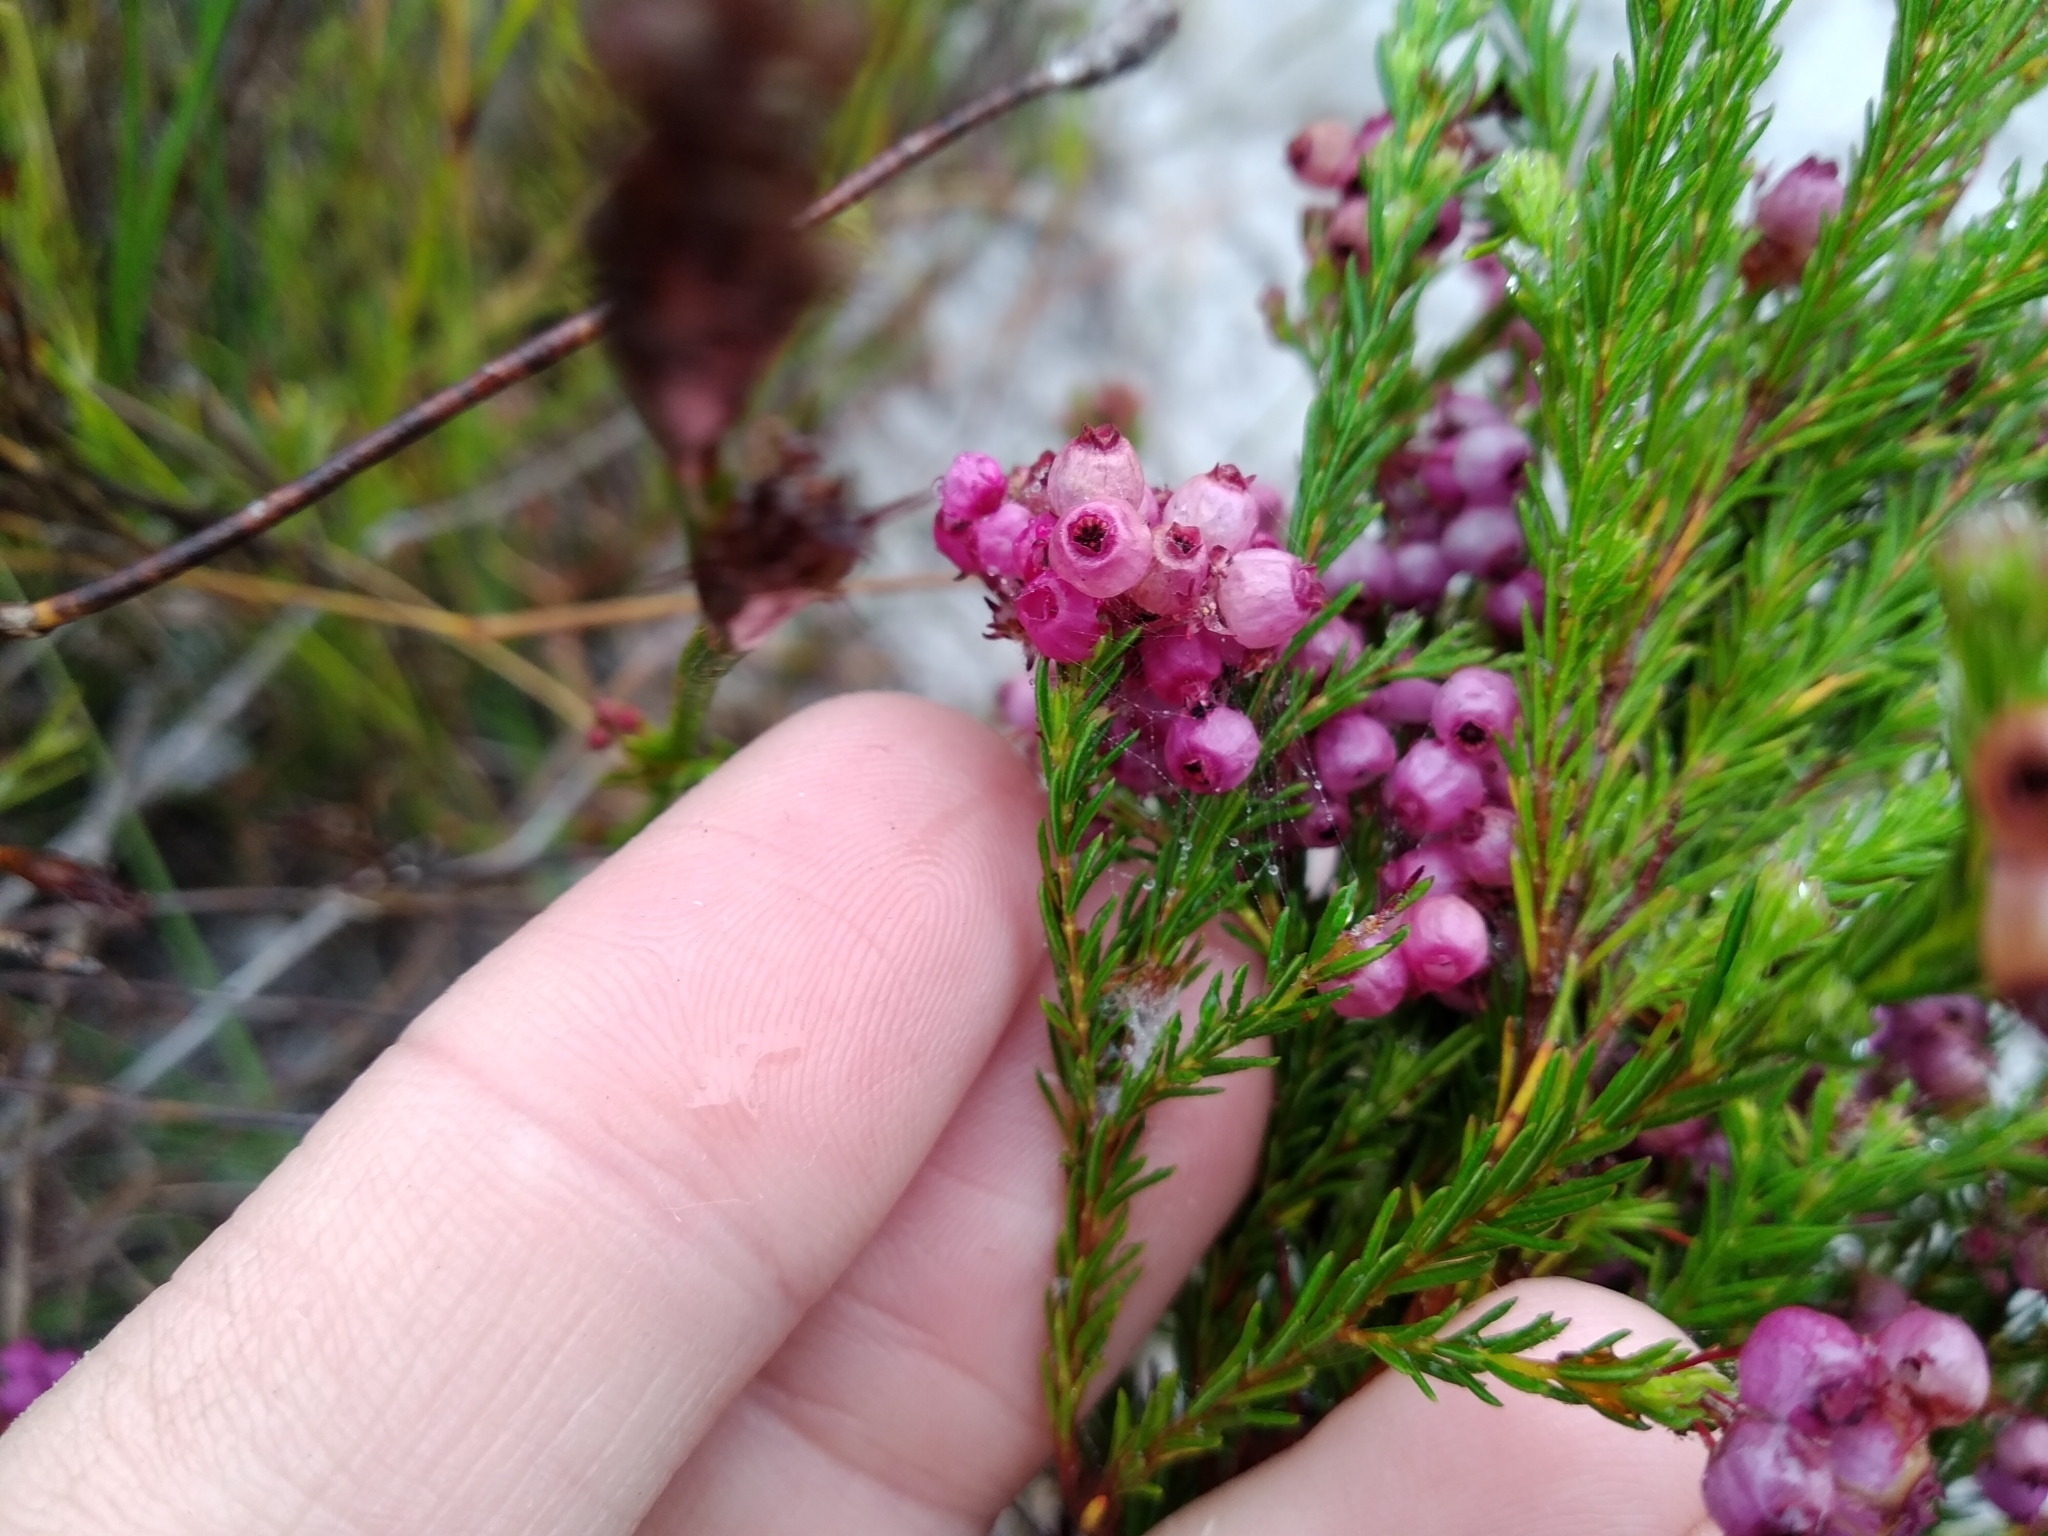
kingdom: Plantae
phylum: Tracheophyta
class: Magnoliopsida
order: Ericales
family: Ericaceae
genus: Erica
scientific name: Erica multumbellifera
